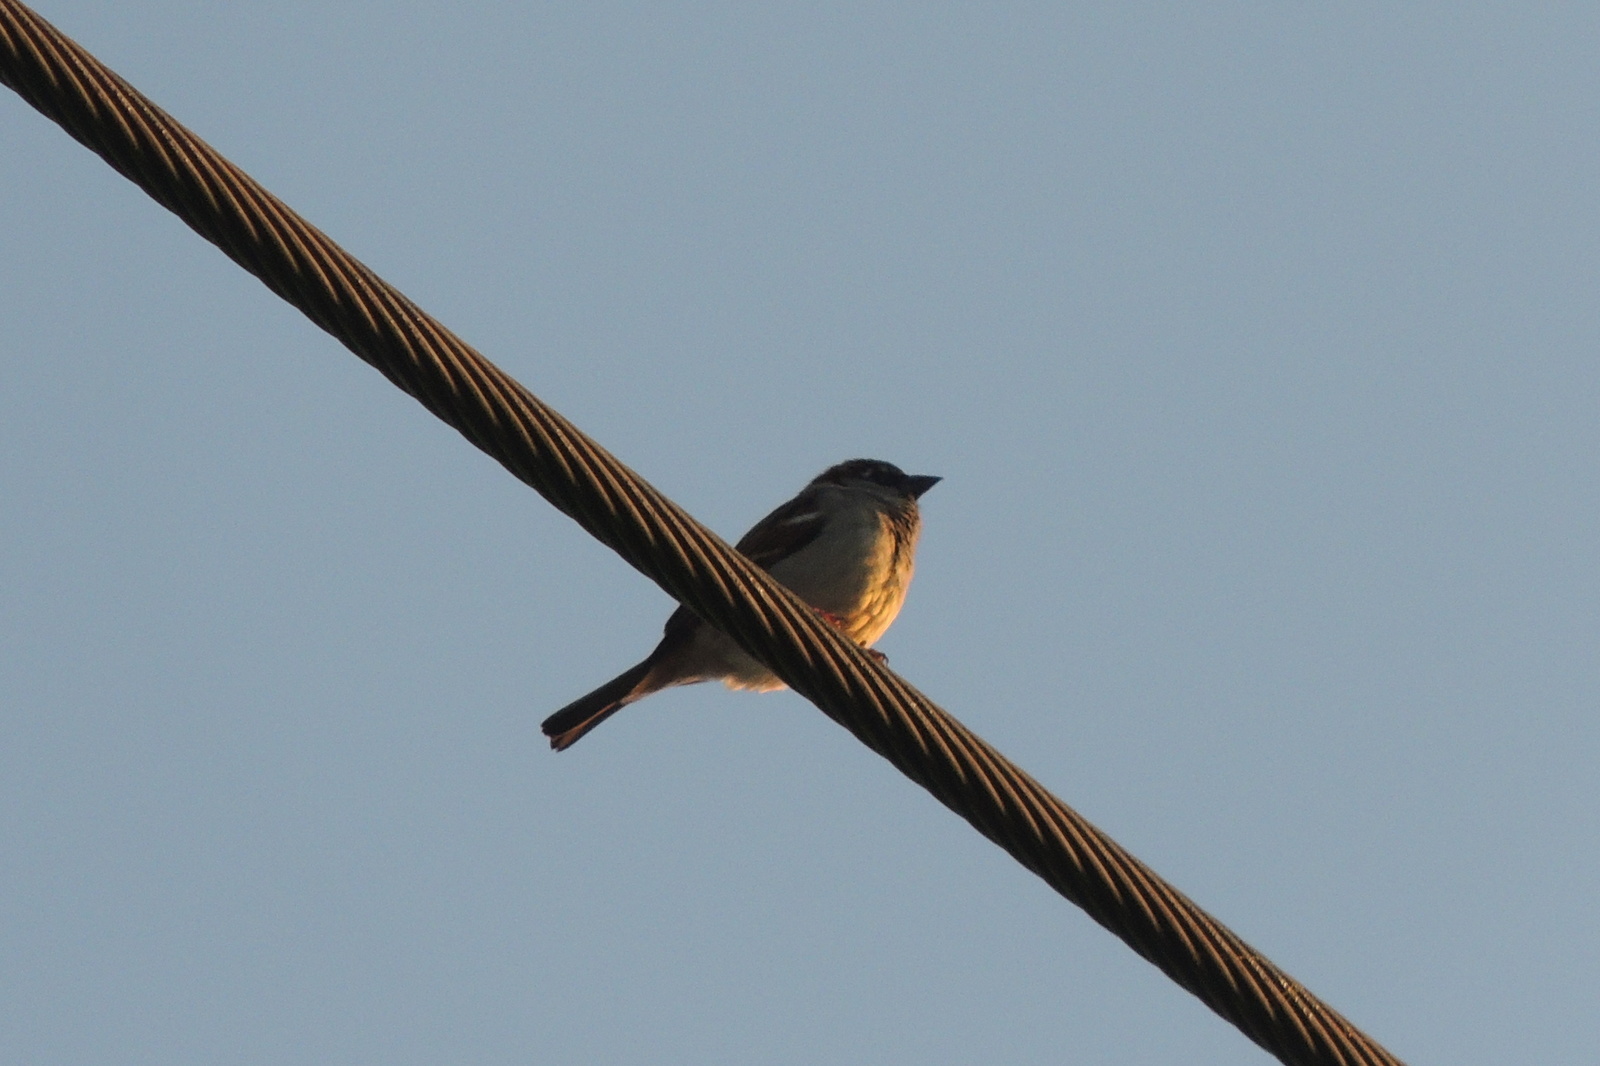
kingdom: Animalia
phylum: Chordata
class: Aves
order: Passeriformes
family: Passeridae
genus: Passer
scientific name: Passer domesticus
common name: House sparrow
